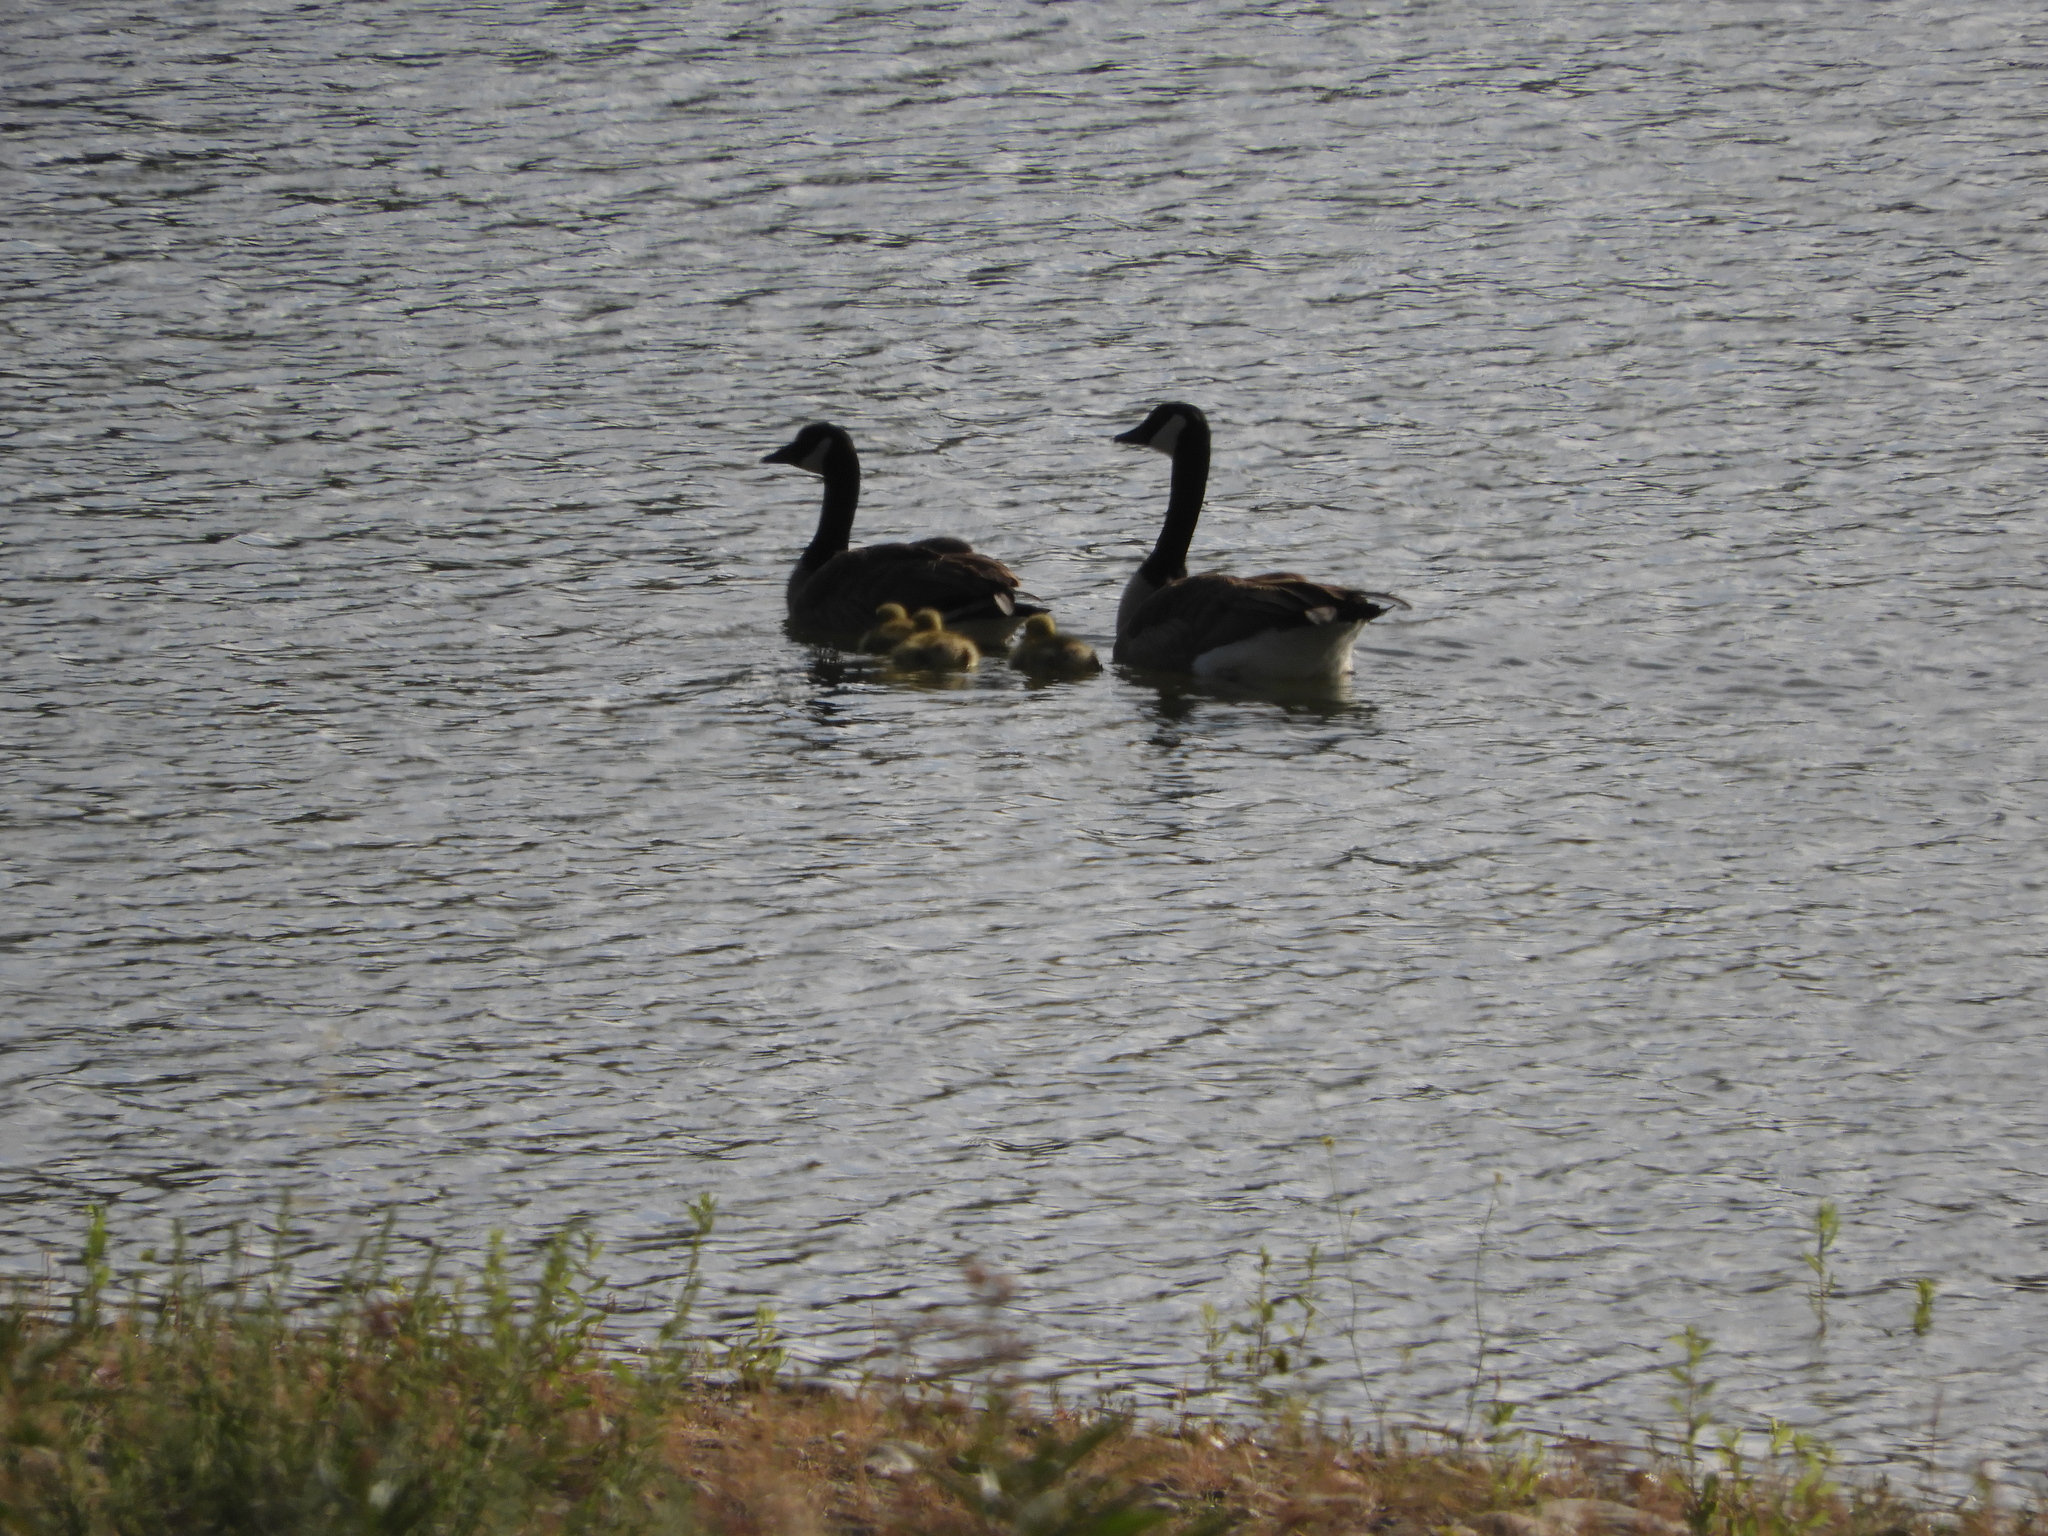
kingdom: Animalia
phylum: Chordata
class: Aves
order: Anseriformes
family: Anatidae
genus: Branta
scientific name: Branta canadensis
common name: Canada goose
